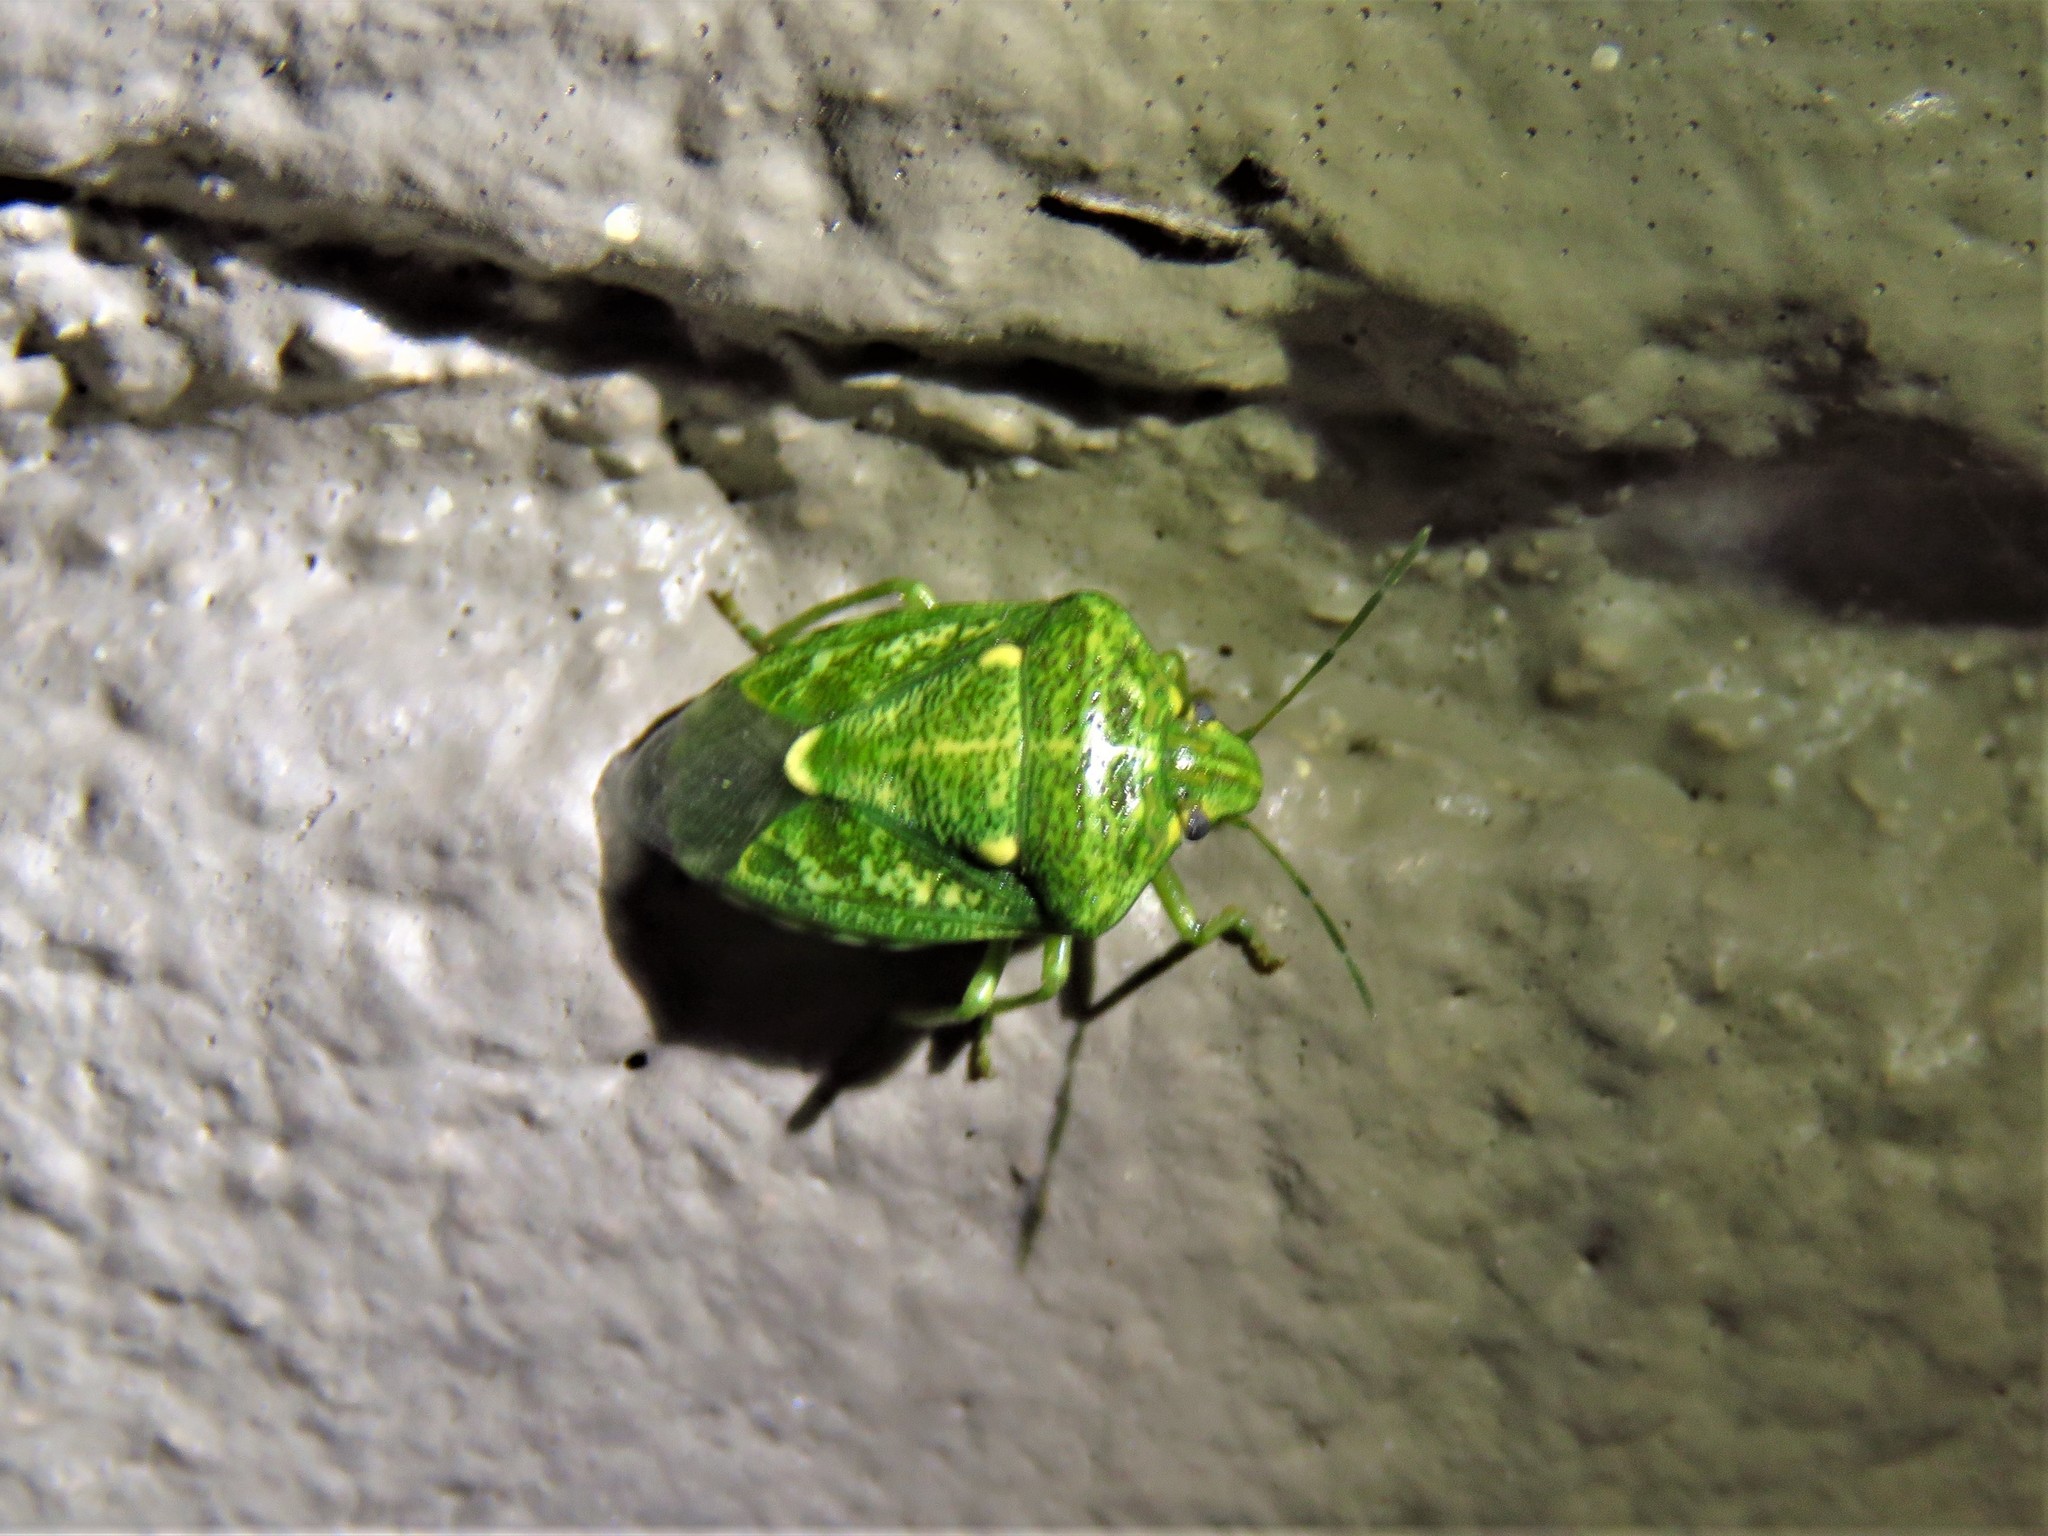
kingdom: Animalia
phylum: Arthropoda
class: Insecta
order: Hemiptera
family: Pentatomidae
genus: Banasa
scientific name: Banasa euchlora
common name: Cedar berry bug
